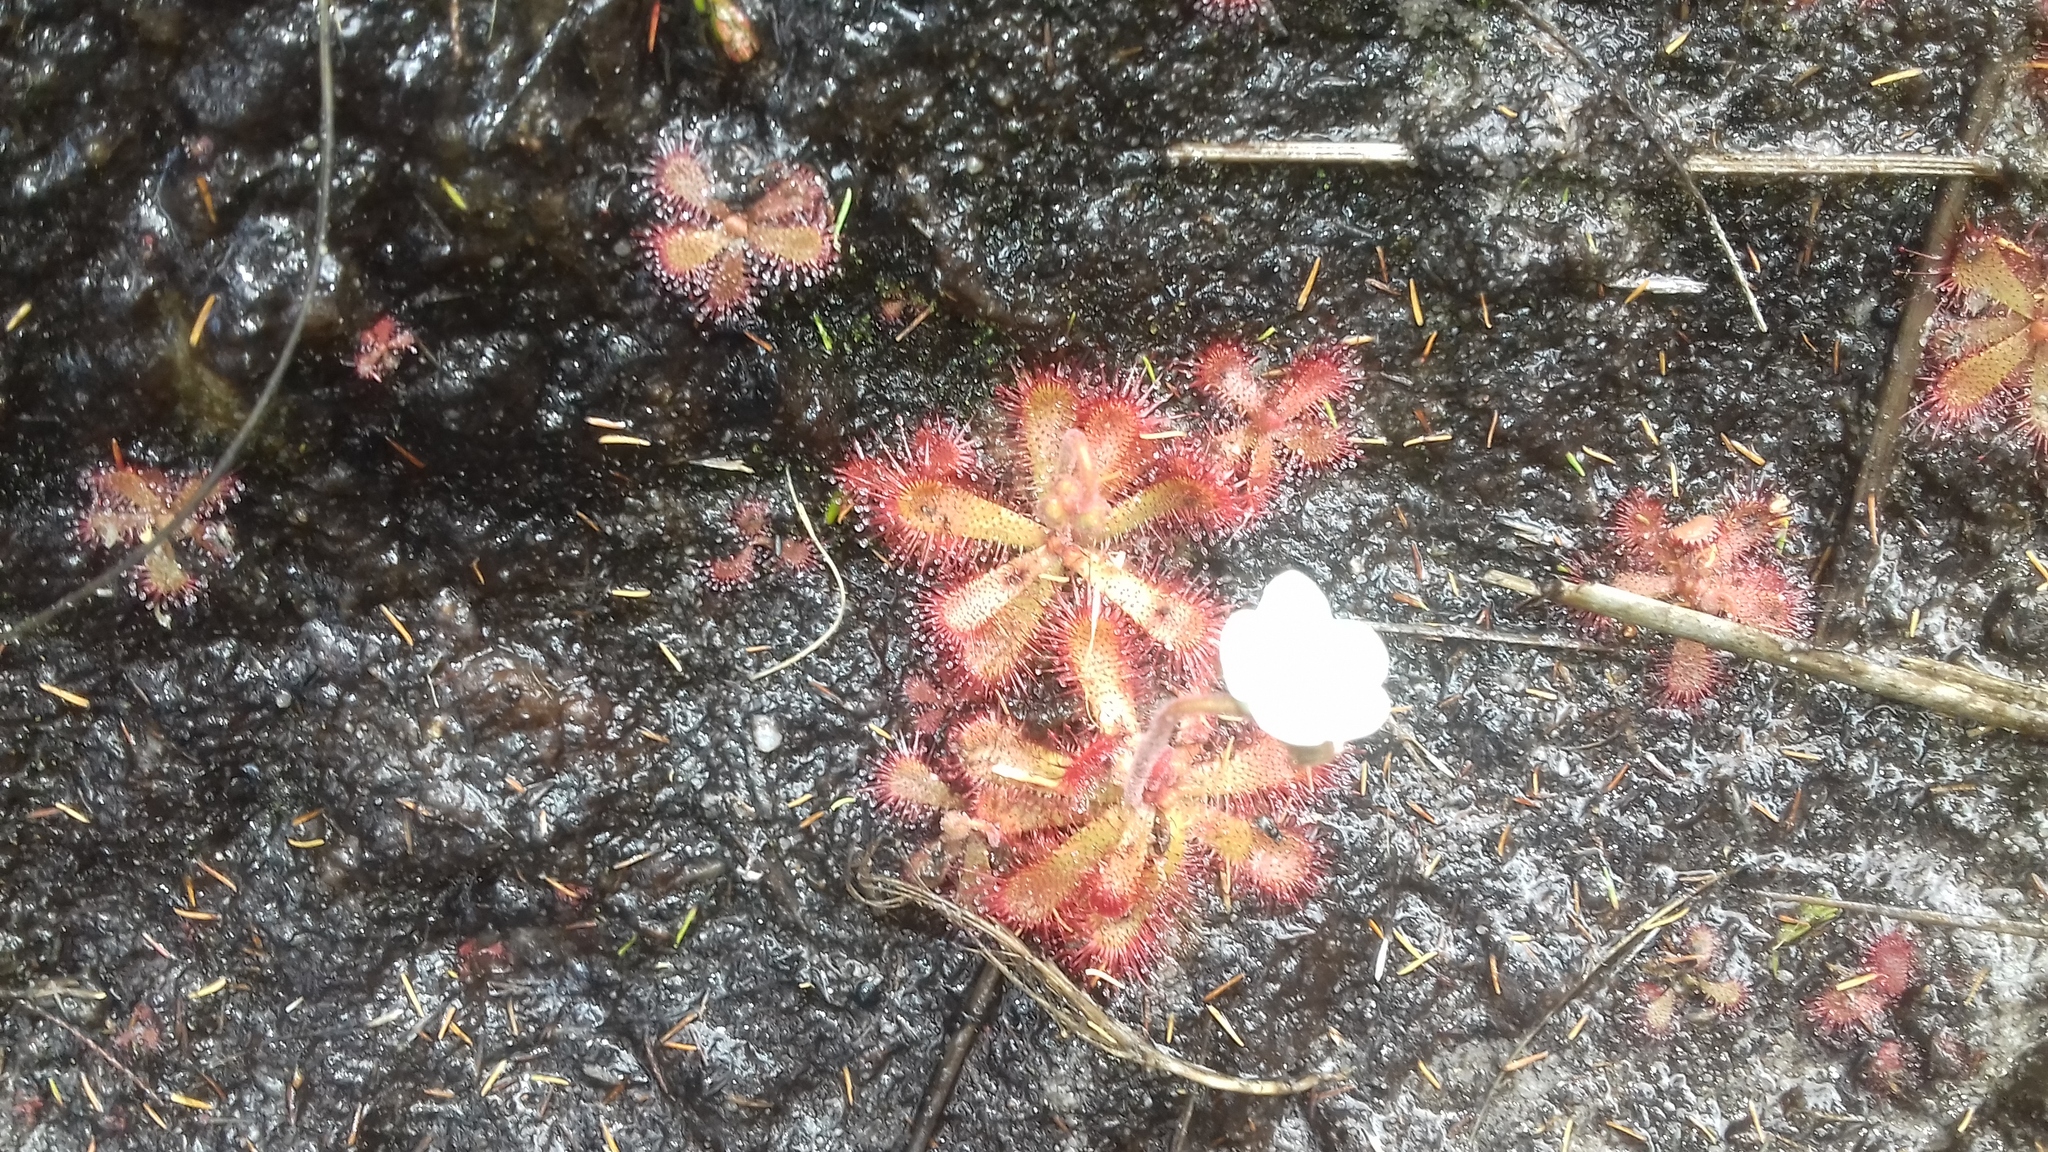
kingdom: Plantae
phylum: Tracheophyta
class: Magnoliopsida
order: Caryophyllales
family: Droseraceae
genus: Drosera
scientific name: Drosera trinervia
